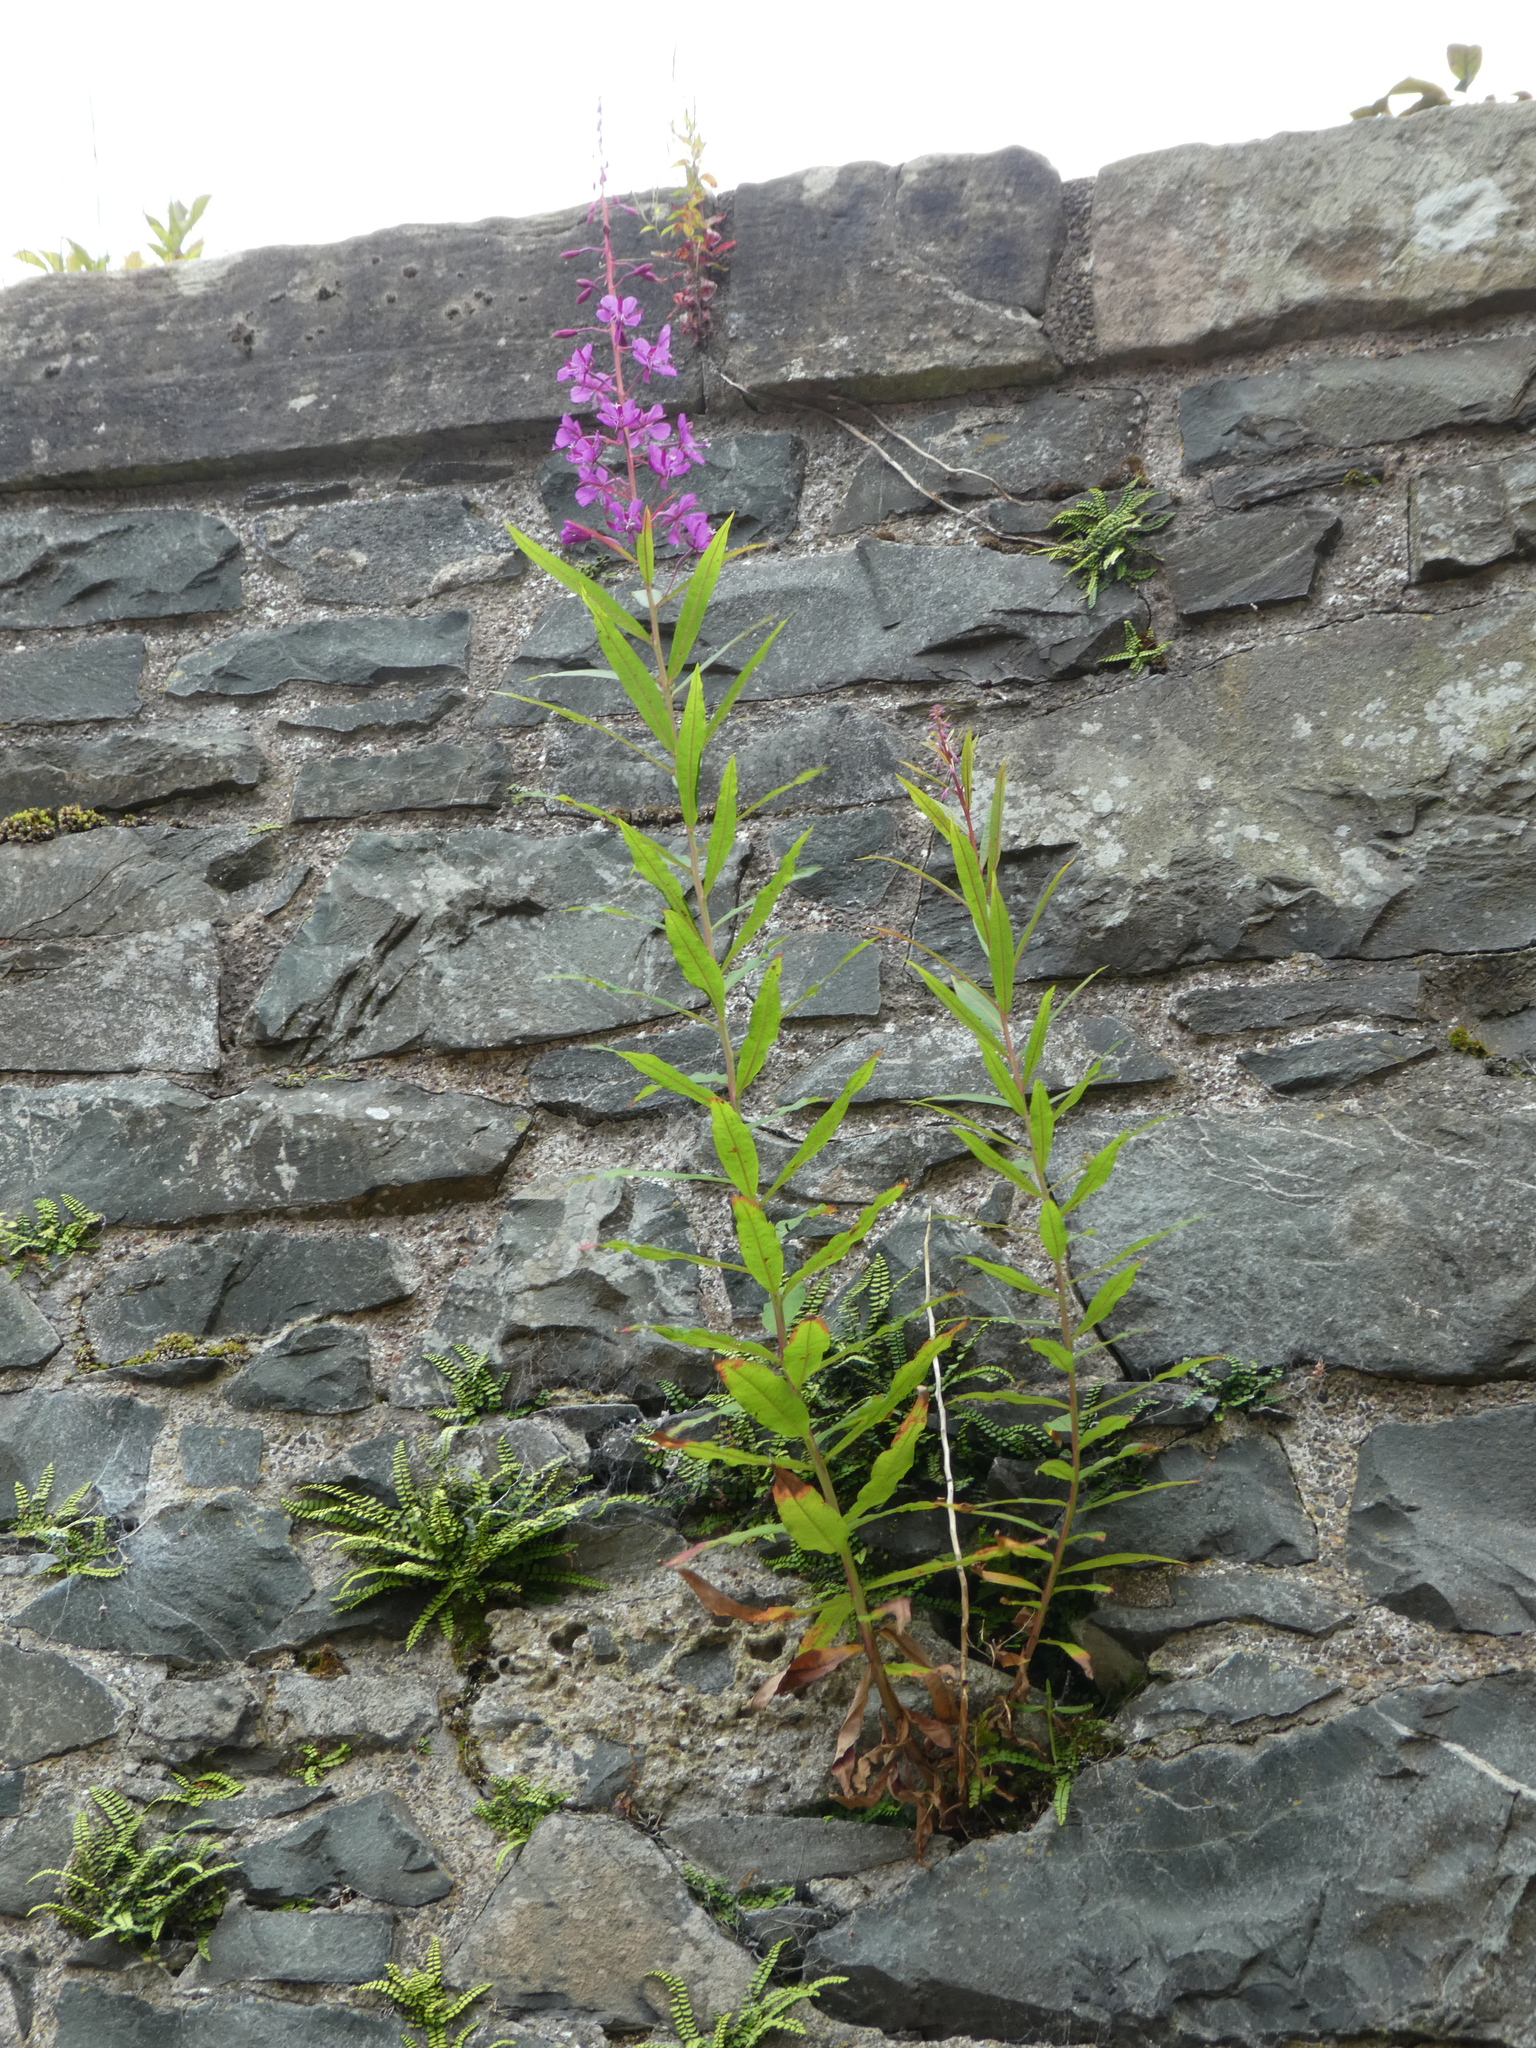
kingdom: Plantae
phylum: Tracheophyta
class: Magnoliopsida
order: Myrtales
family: Onagraceae
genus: Chamaenerion
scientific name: Chamaenerion angustifolium
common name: Fireweed
